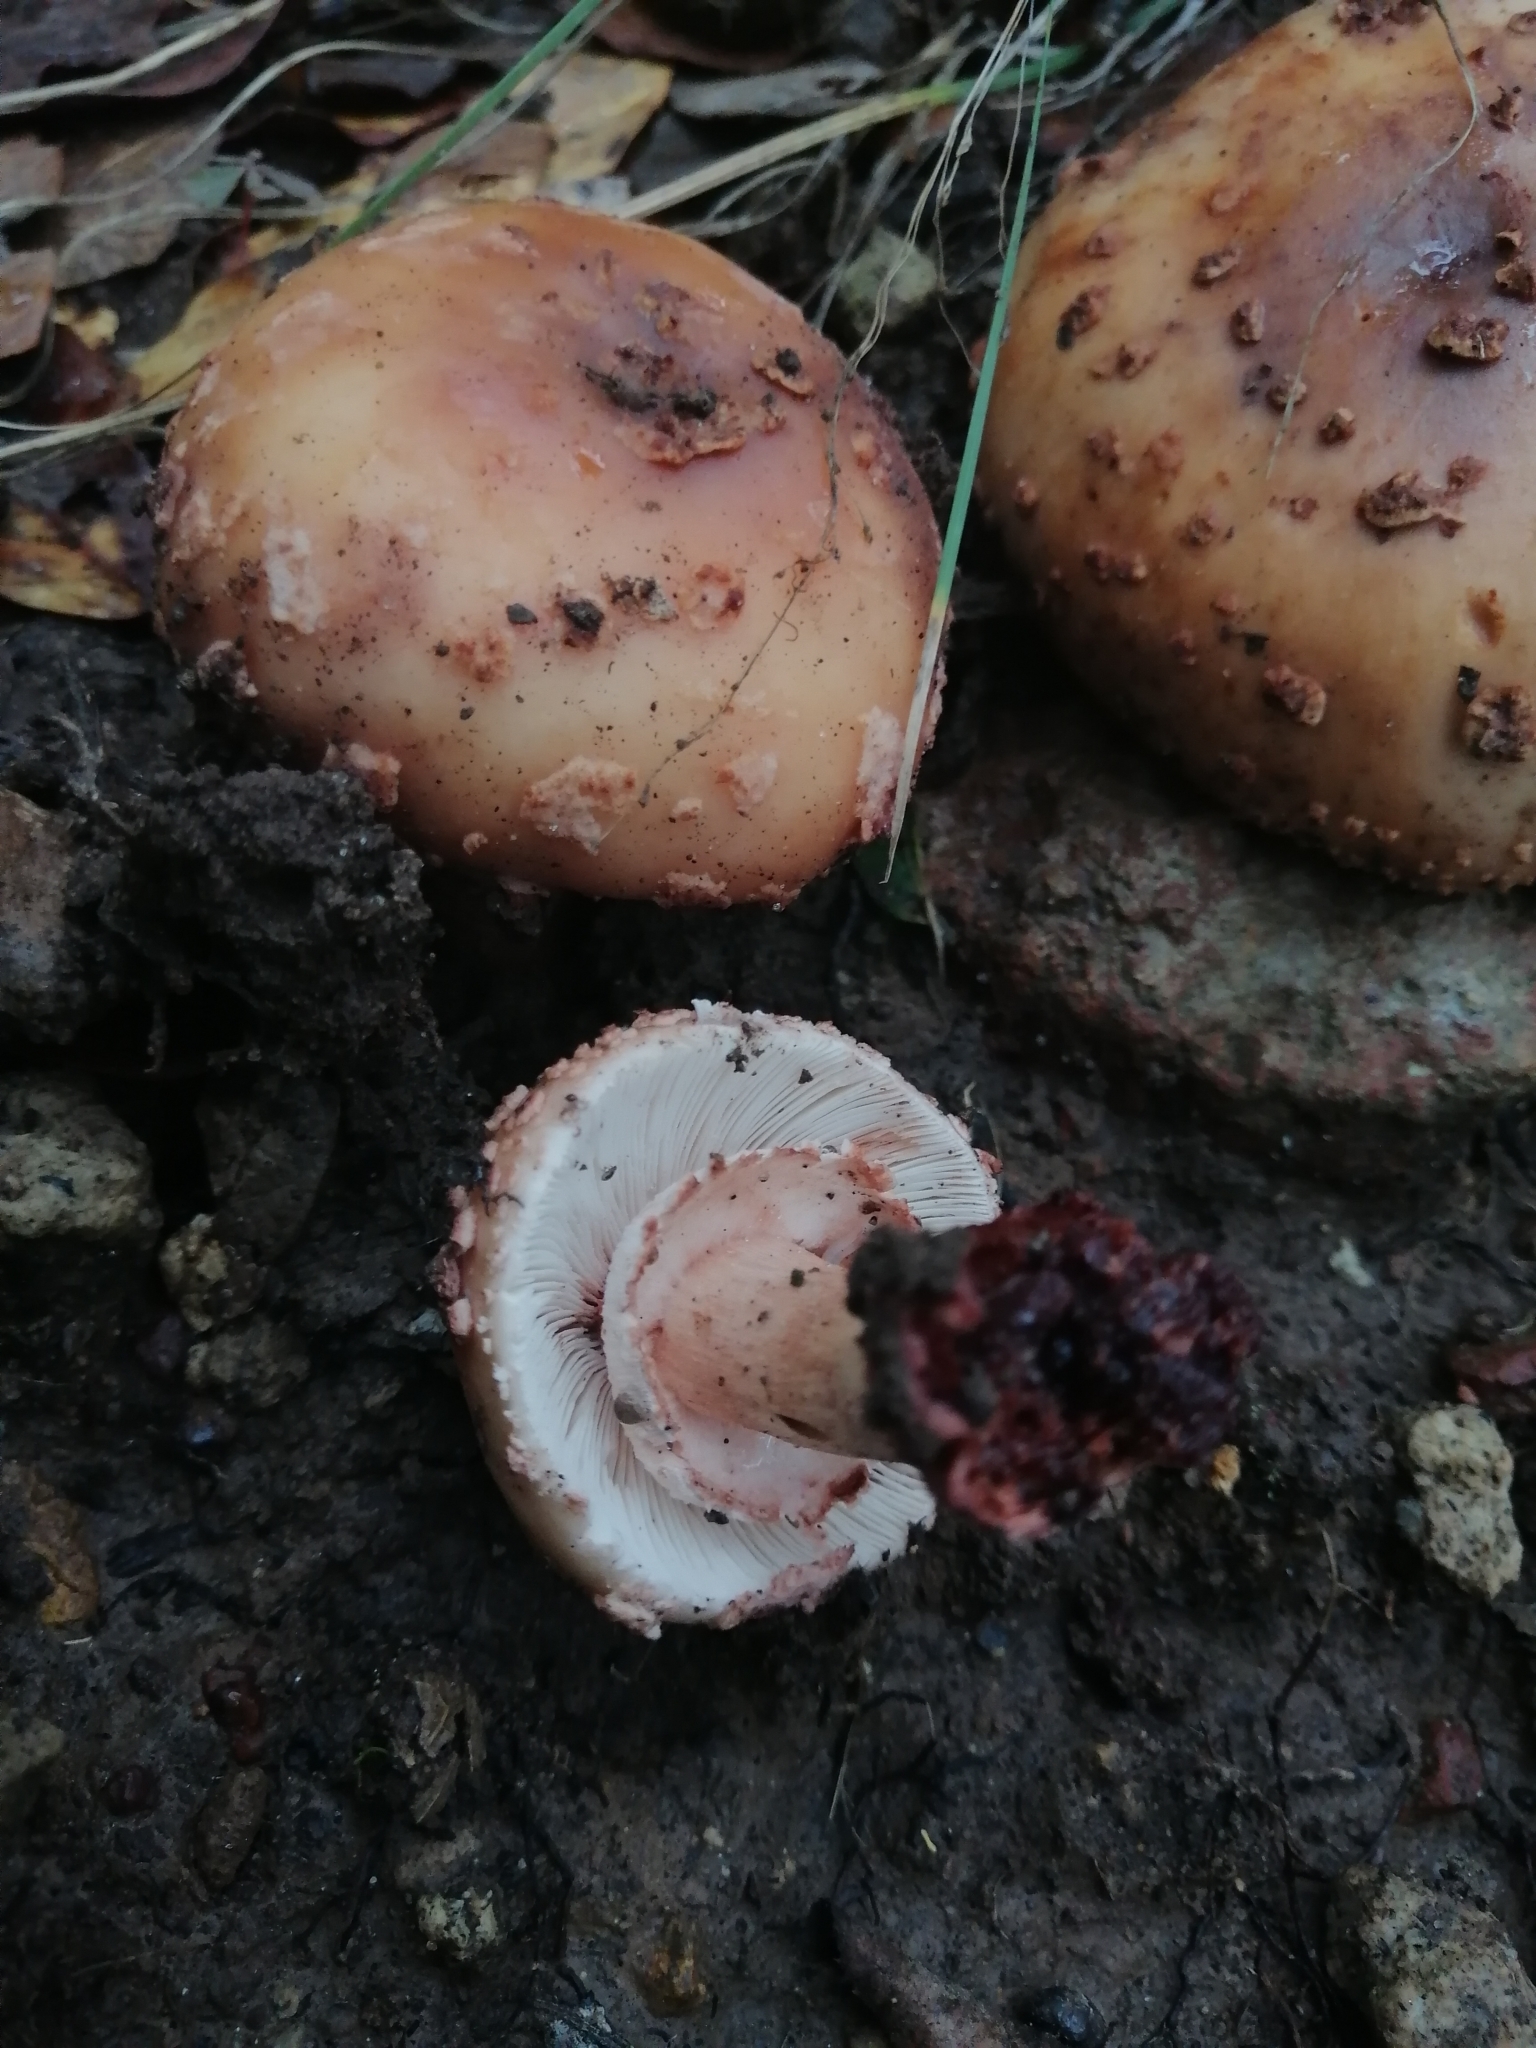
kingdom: Fungi
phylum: Basidiomycota
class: Agaricomycetes
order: Agaricales
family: Amanitaceae
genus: Amanita
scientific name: Amanita brunneolocularis
